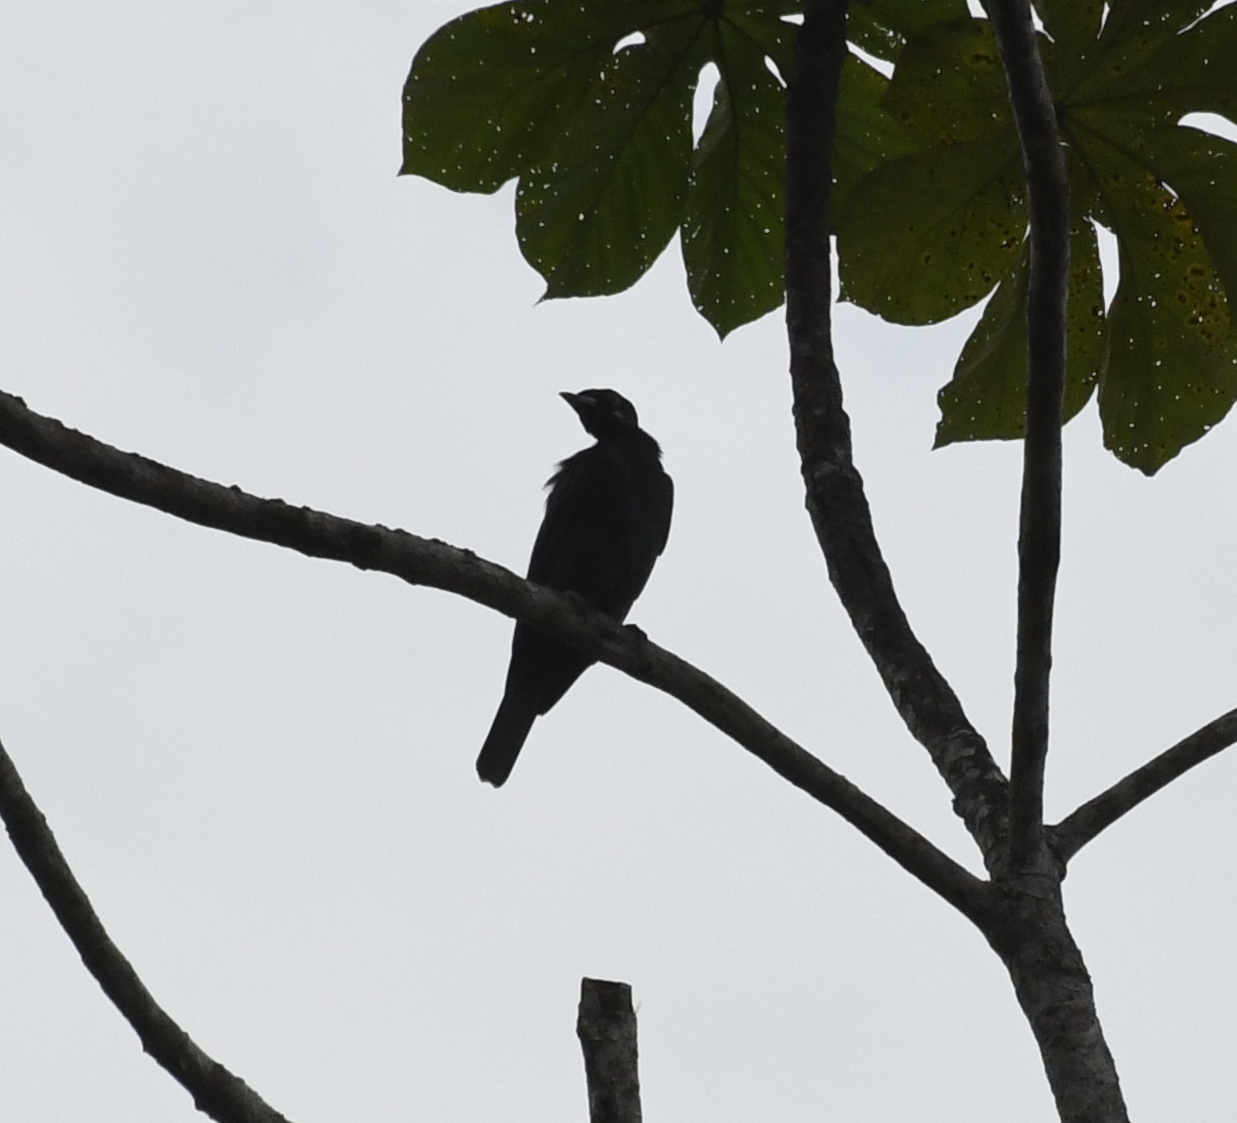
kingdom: Animalia
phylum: Chordata
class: Aves
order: Passeriformes
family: Cotingidae
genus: Gymnoderus
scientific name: Gymnoderus foetidus
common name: Bare-necked fruitcrow
